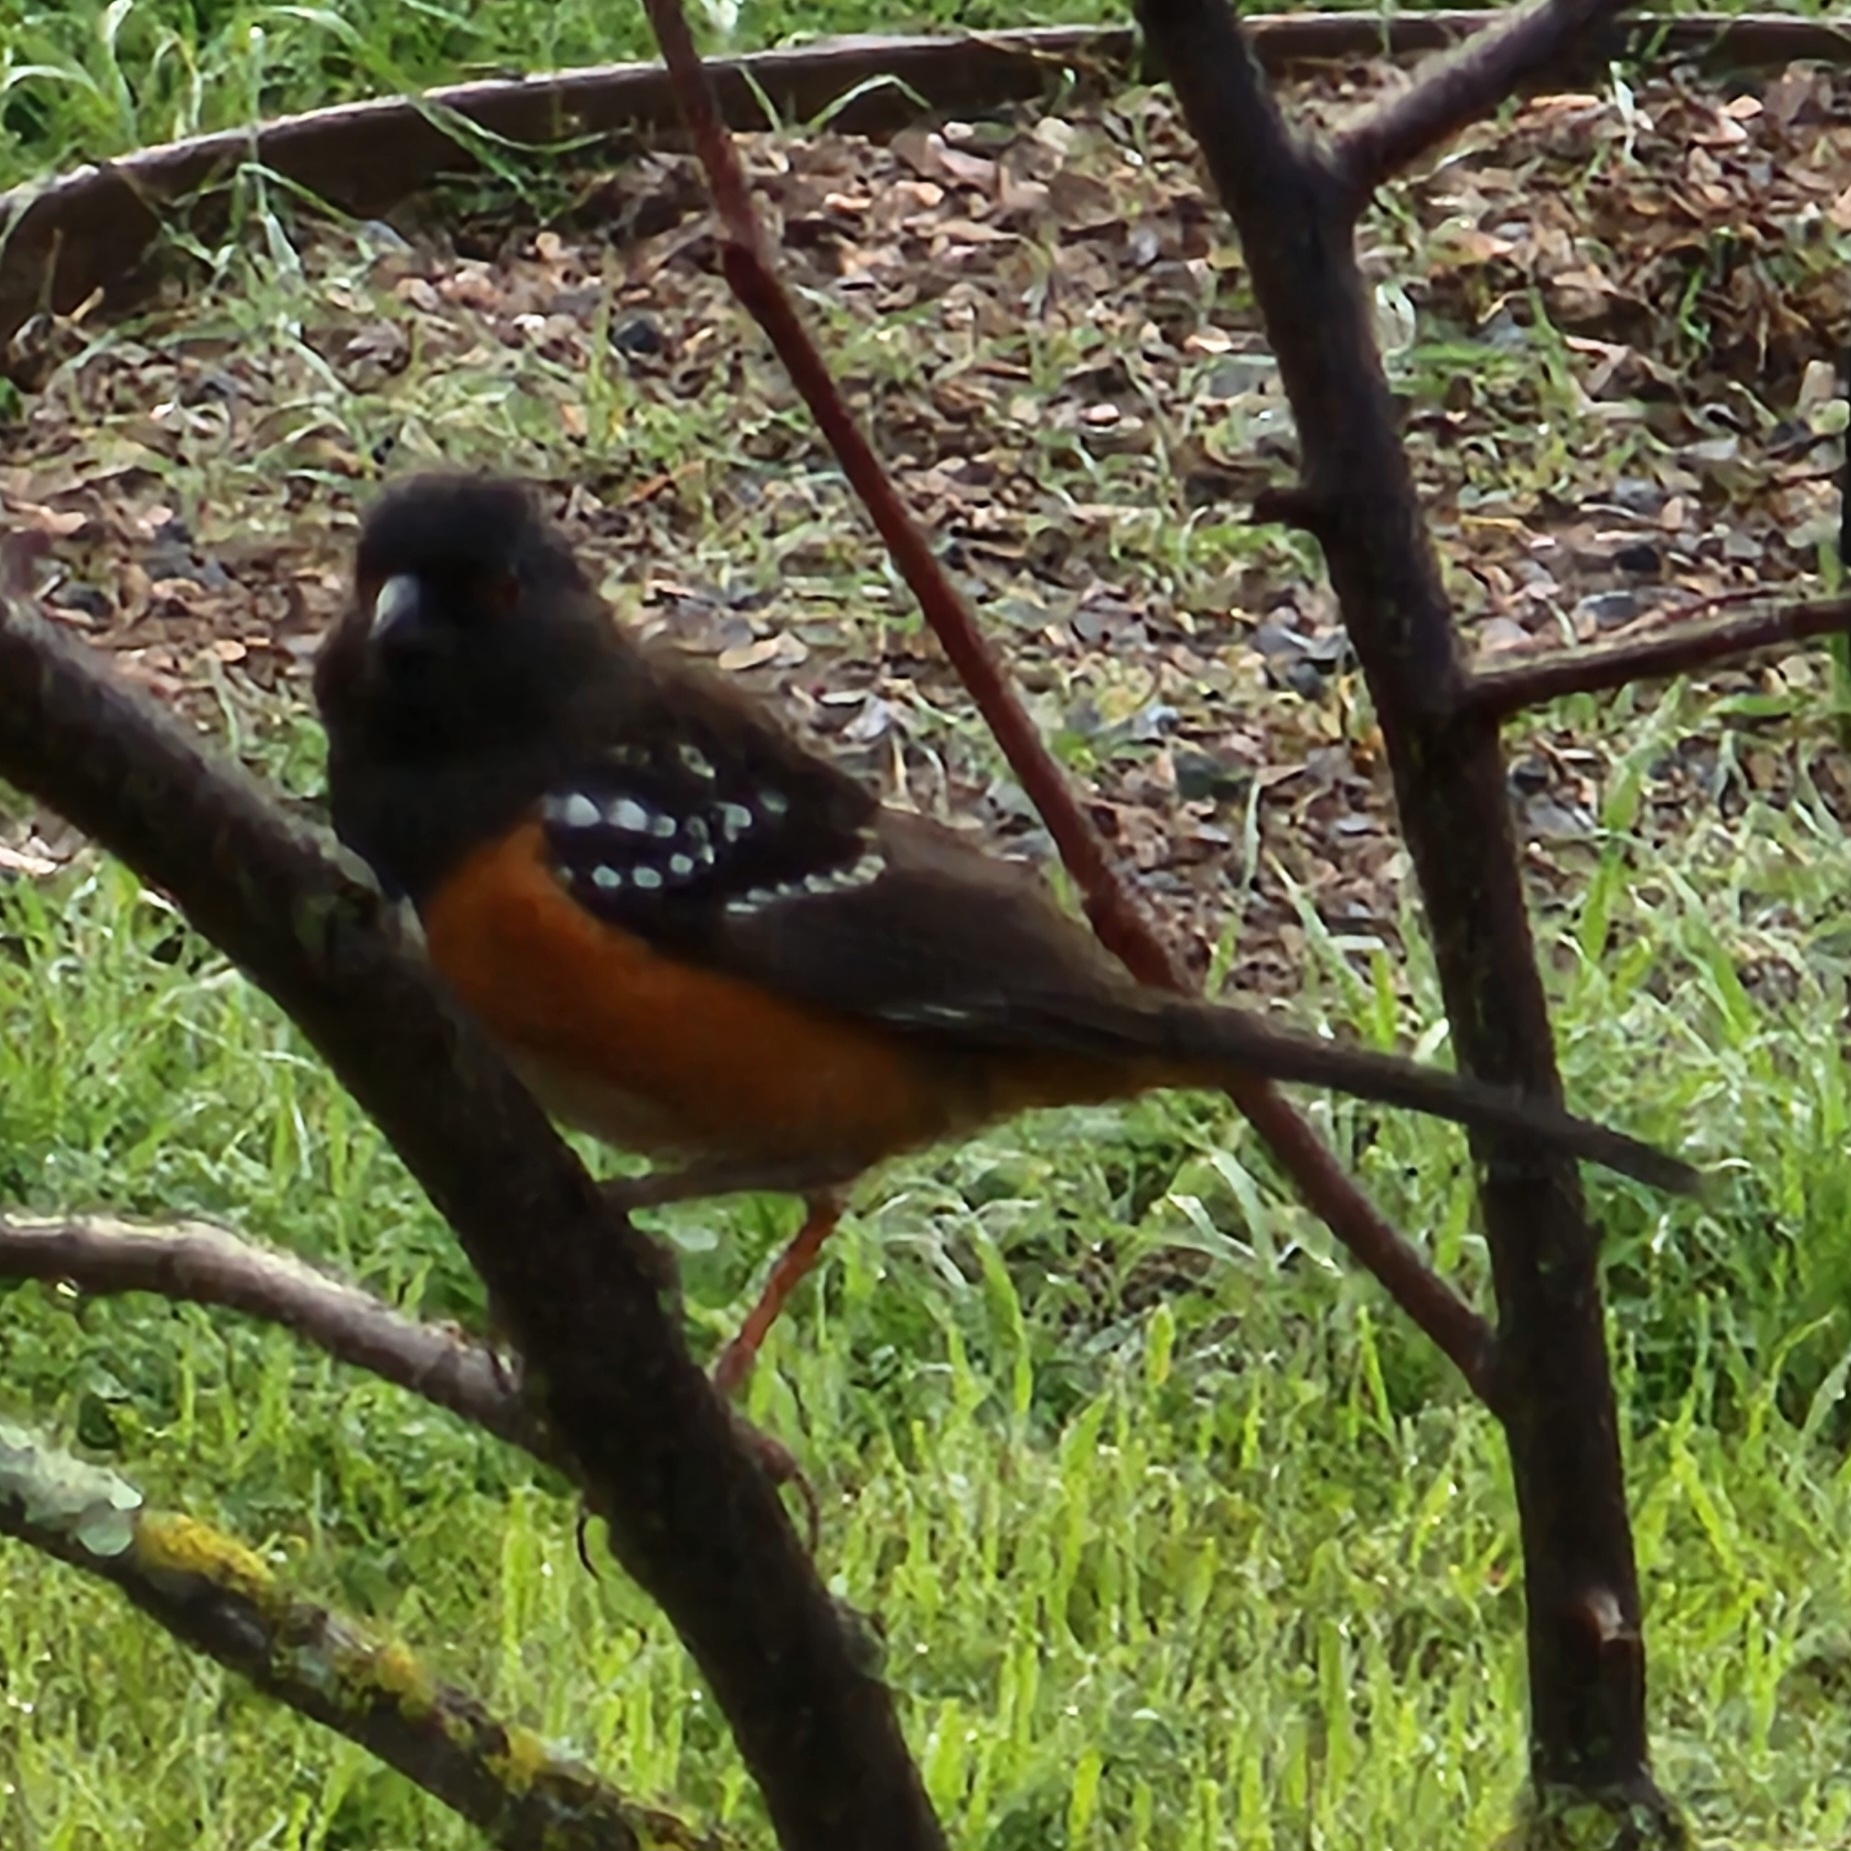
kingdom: Animalia
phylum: Chordata
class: Aves
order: Passeriformes
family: Passerellidae
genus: Pipilo
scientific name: Pipilo maculatus
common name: Spotted towhee
